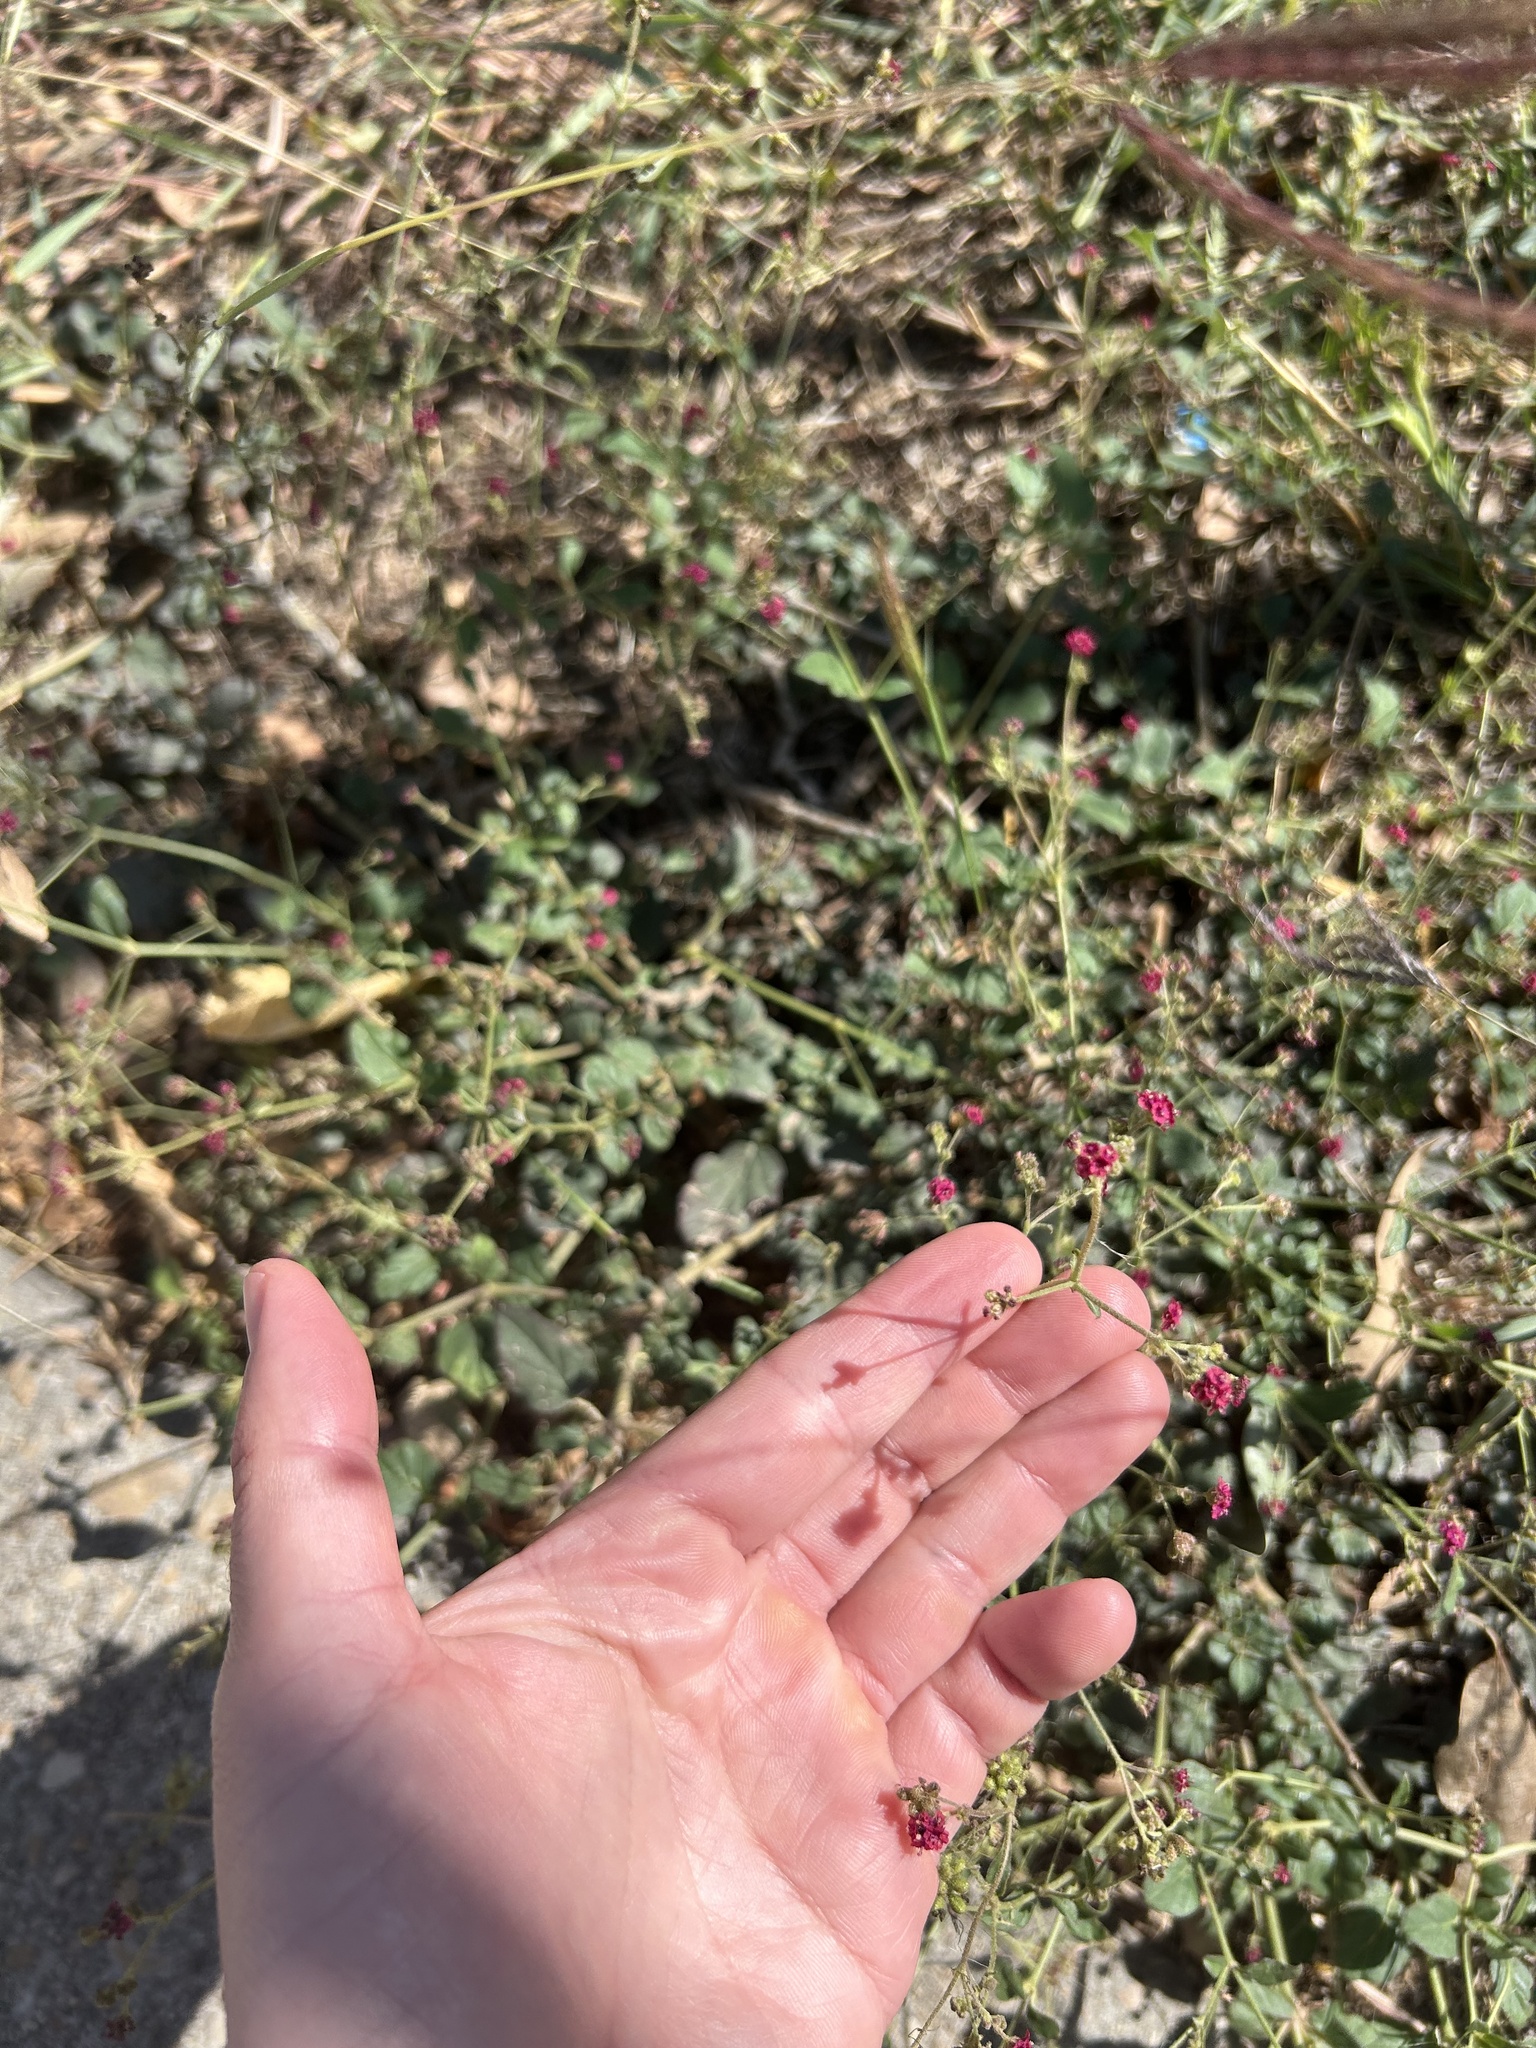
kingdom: Plantae
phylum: Tracheophyta
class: Magnoliopsida
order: Caryophyllales
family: Nyctaginaceae
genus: Boerhavia
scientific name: Boerhavia coccinea
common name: Scarlet spiderling
